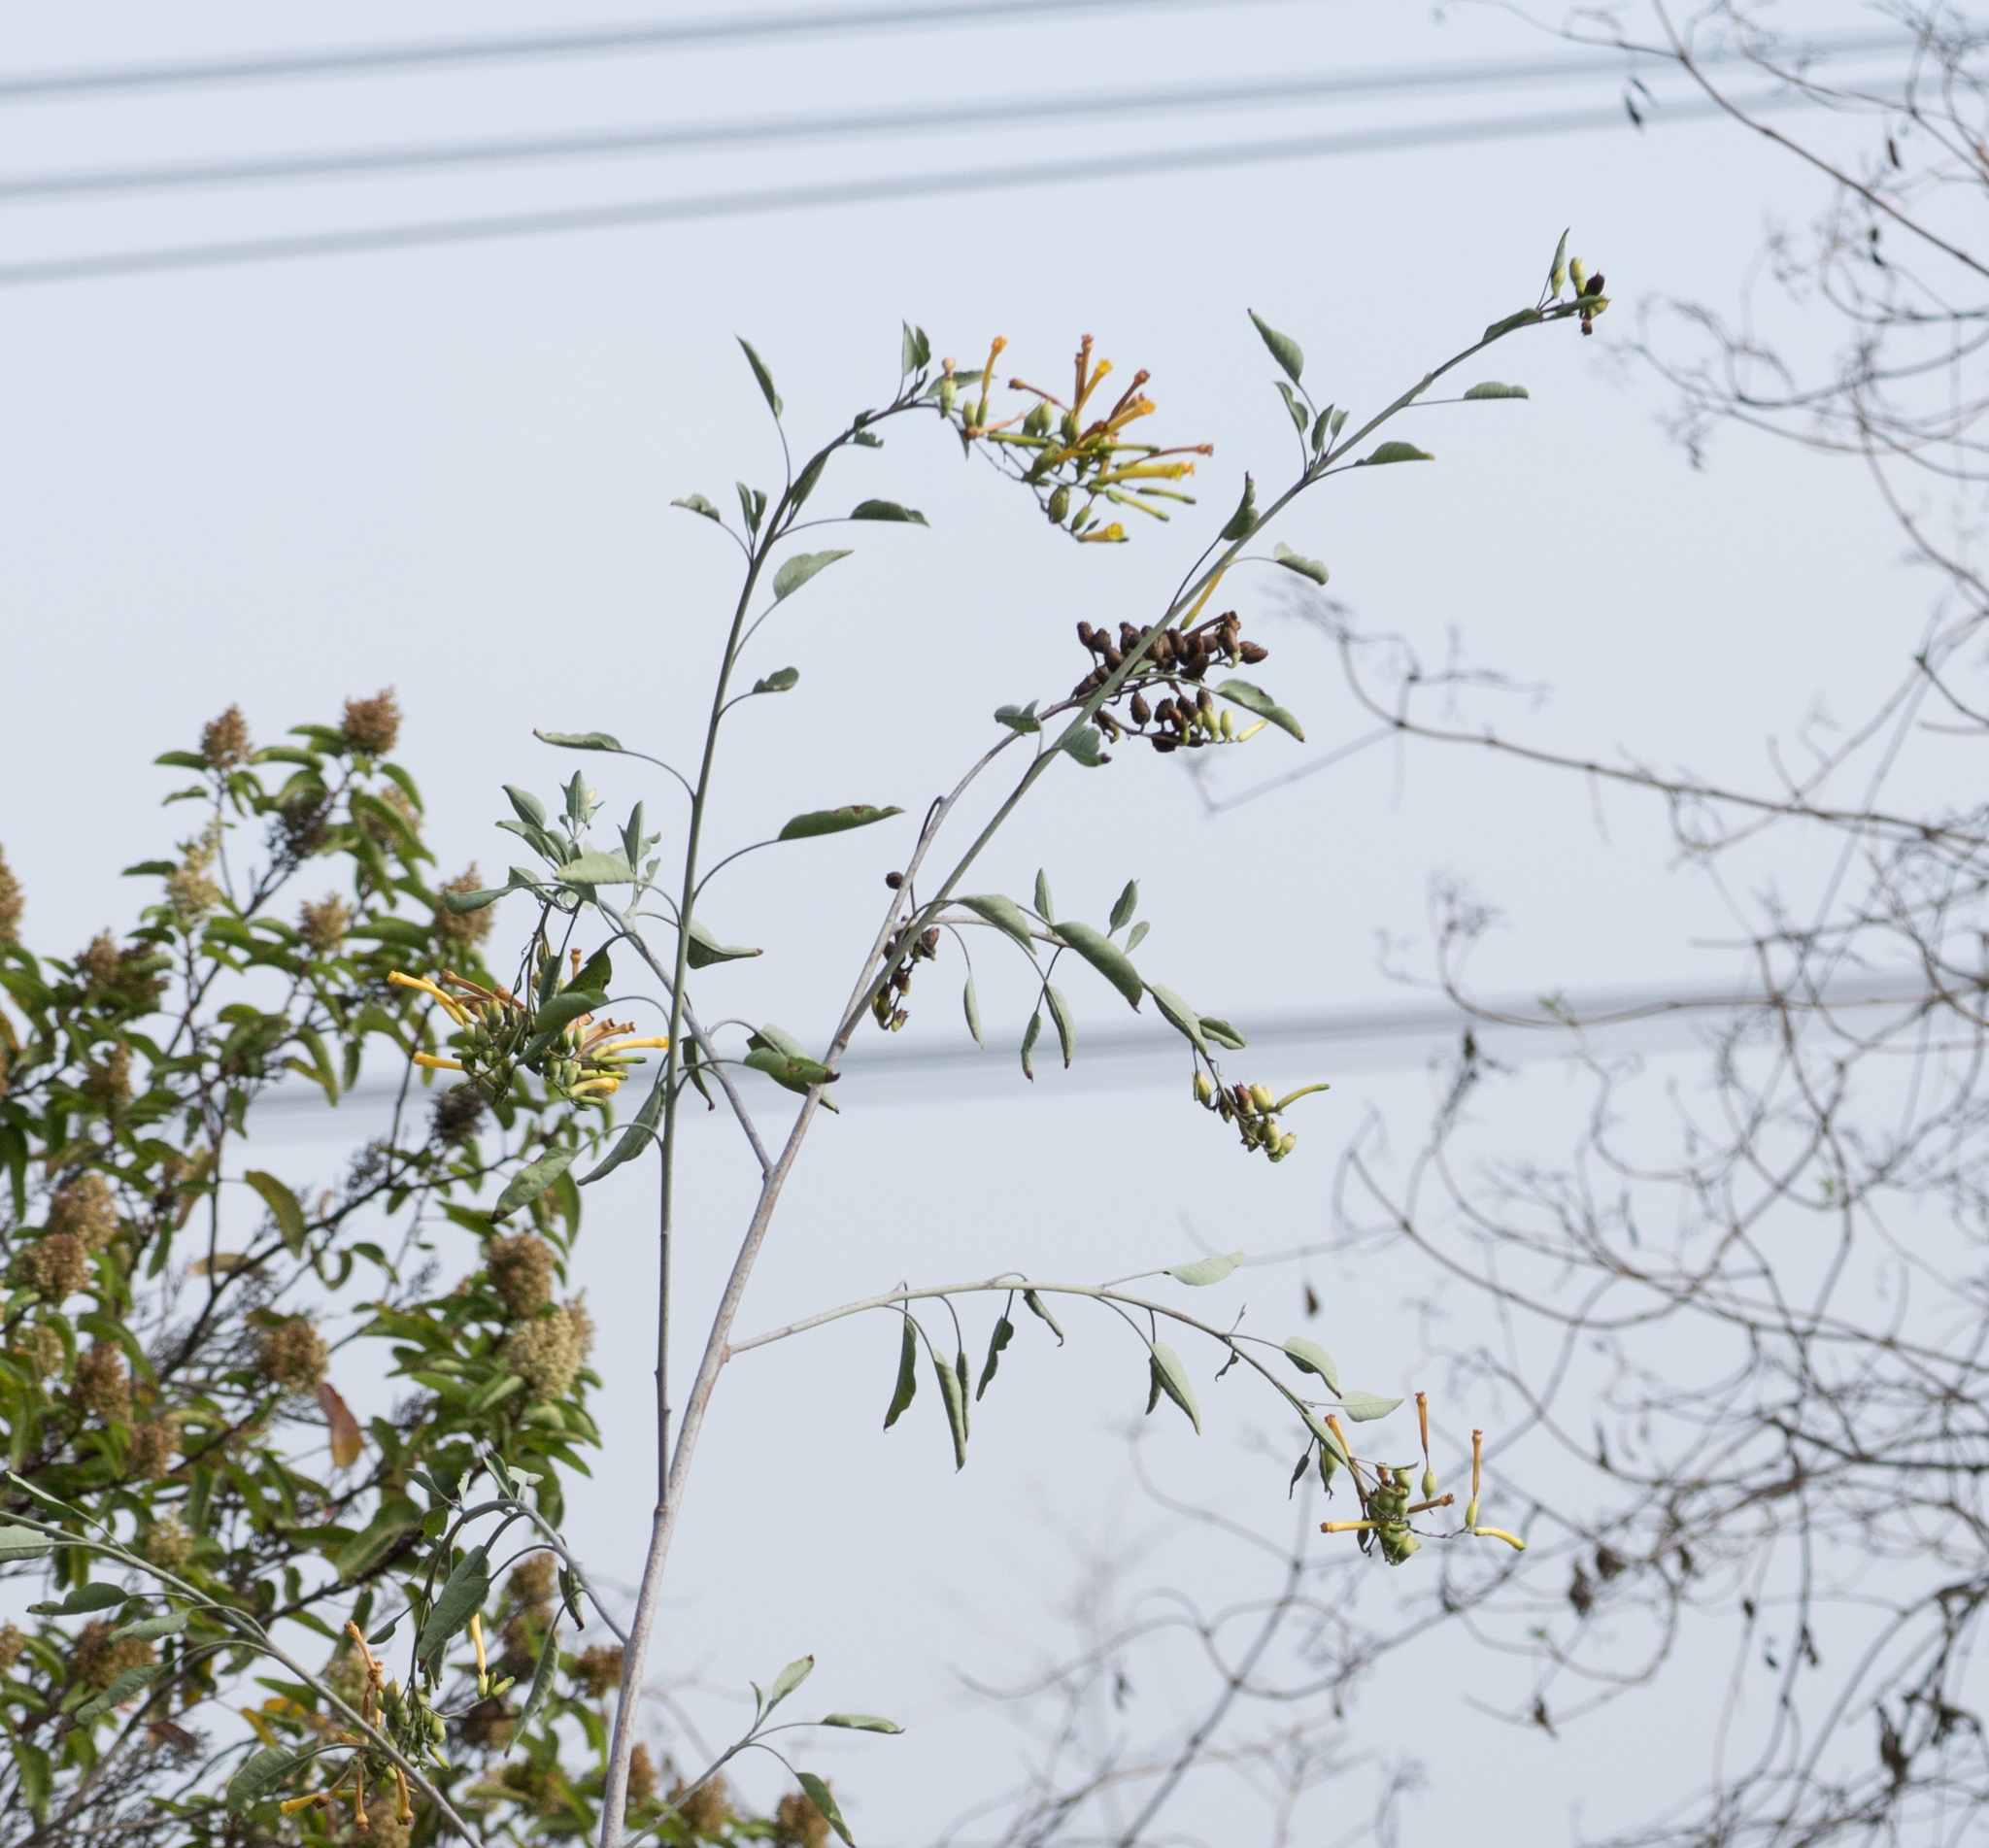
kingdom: Plantae
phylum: Tracheophyta
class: Magnoliopsida
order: Solanales
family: Solanaceae
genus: Nicotiana
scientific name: Nicotiana glauca
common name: Tree tobacco
